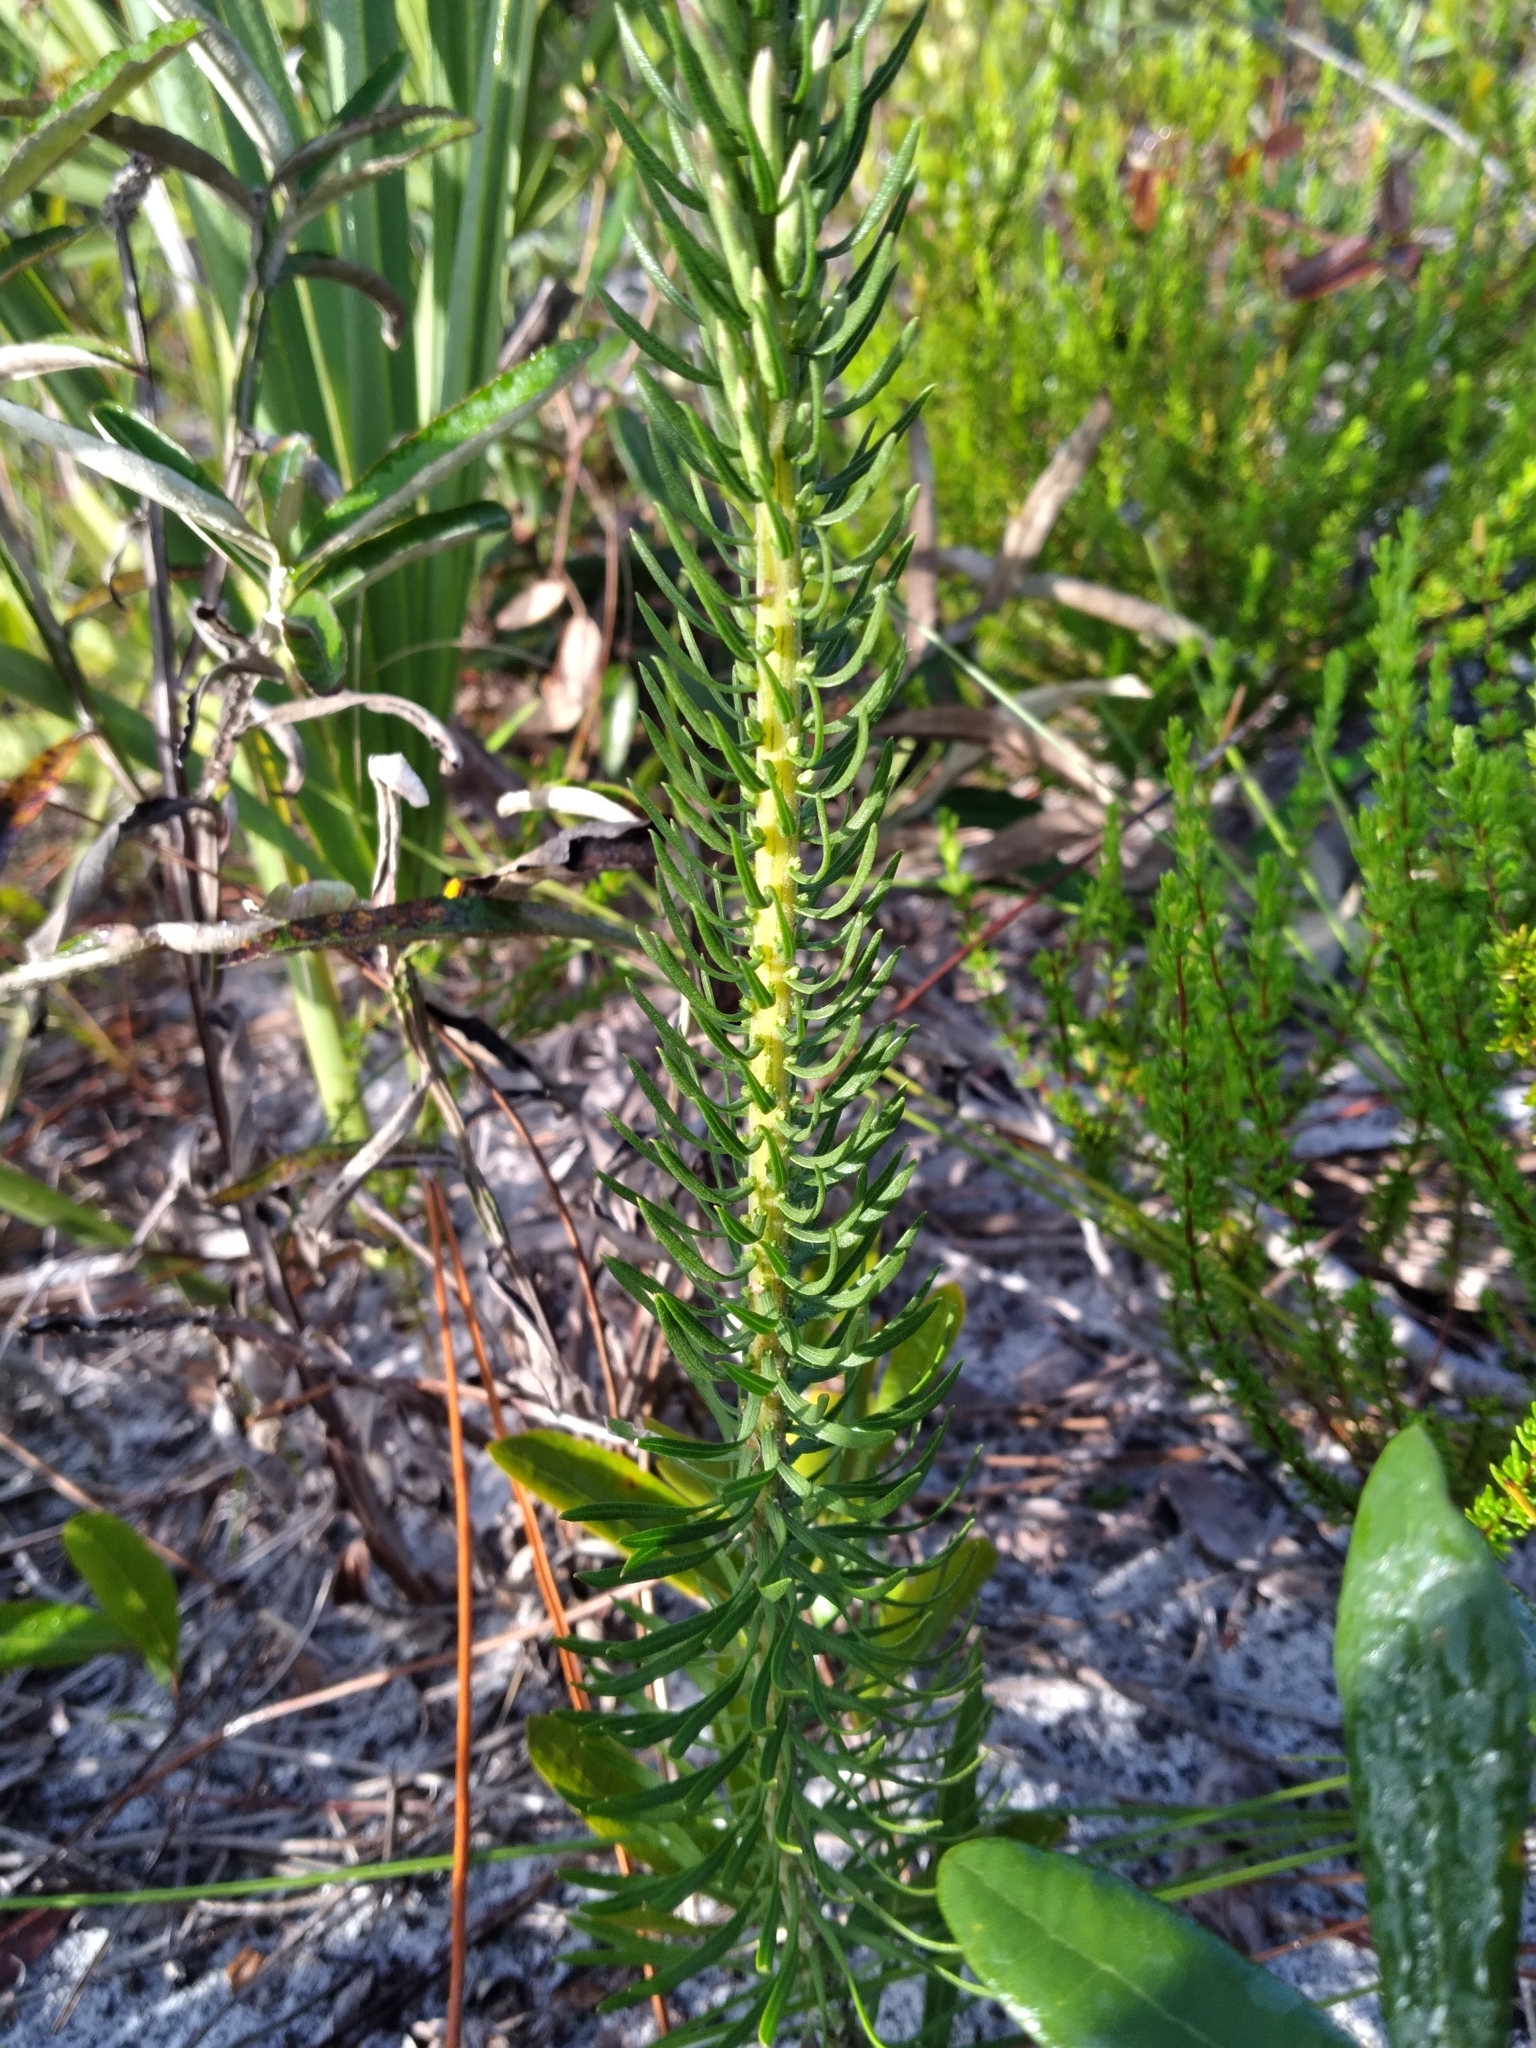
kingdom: Plantae
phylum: Tracheophyta
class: Magnoliopsida
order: Asterales
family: Asteraceae
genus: Liatris
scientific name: Liatris chapmanii
